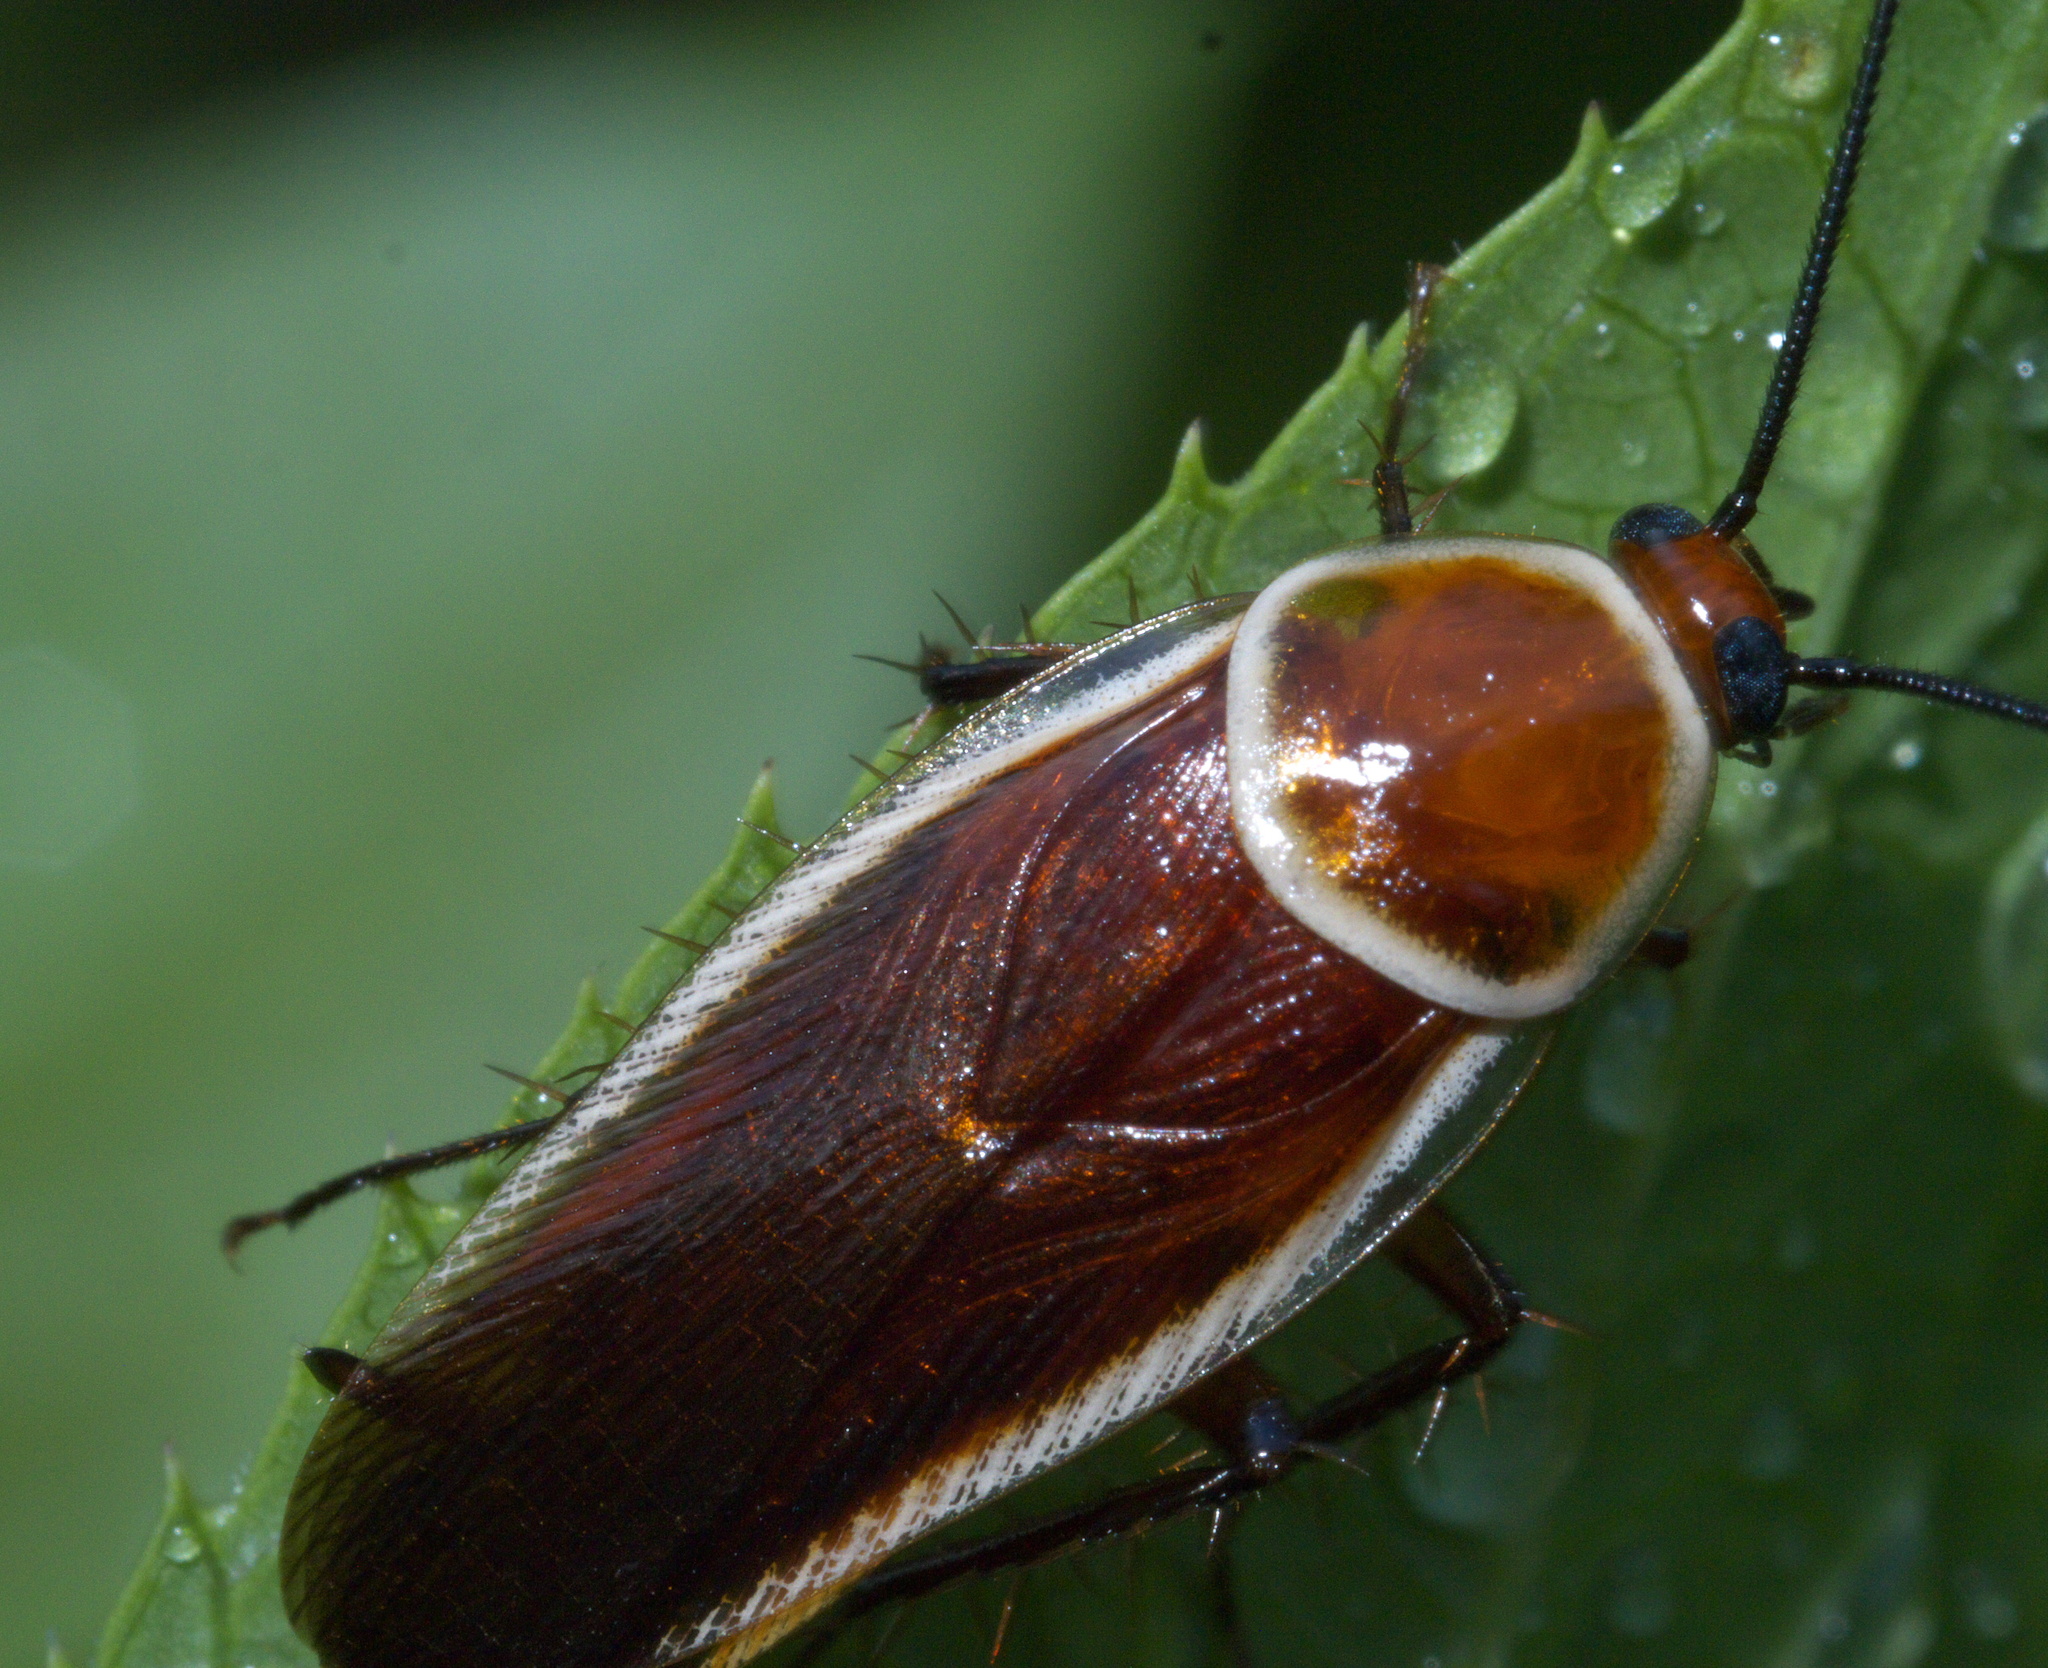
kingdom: Animalia
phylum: Arthropoda
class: Insecta
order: Blattodea
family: Ectobiidae
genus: Pseudomops
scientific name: Pseudomops septentrionalis
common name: Pale-bordered field cockroach
